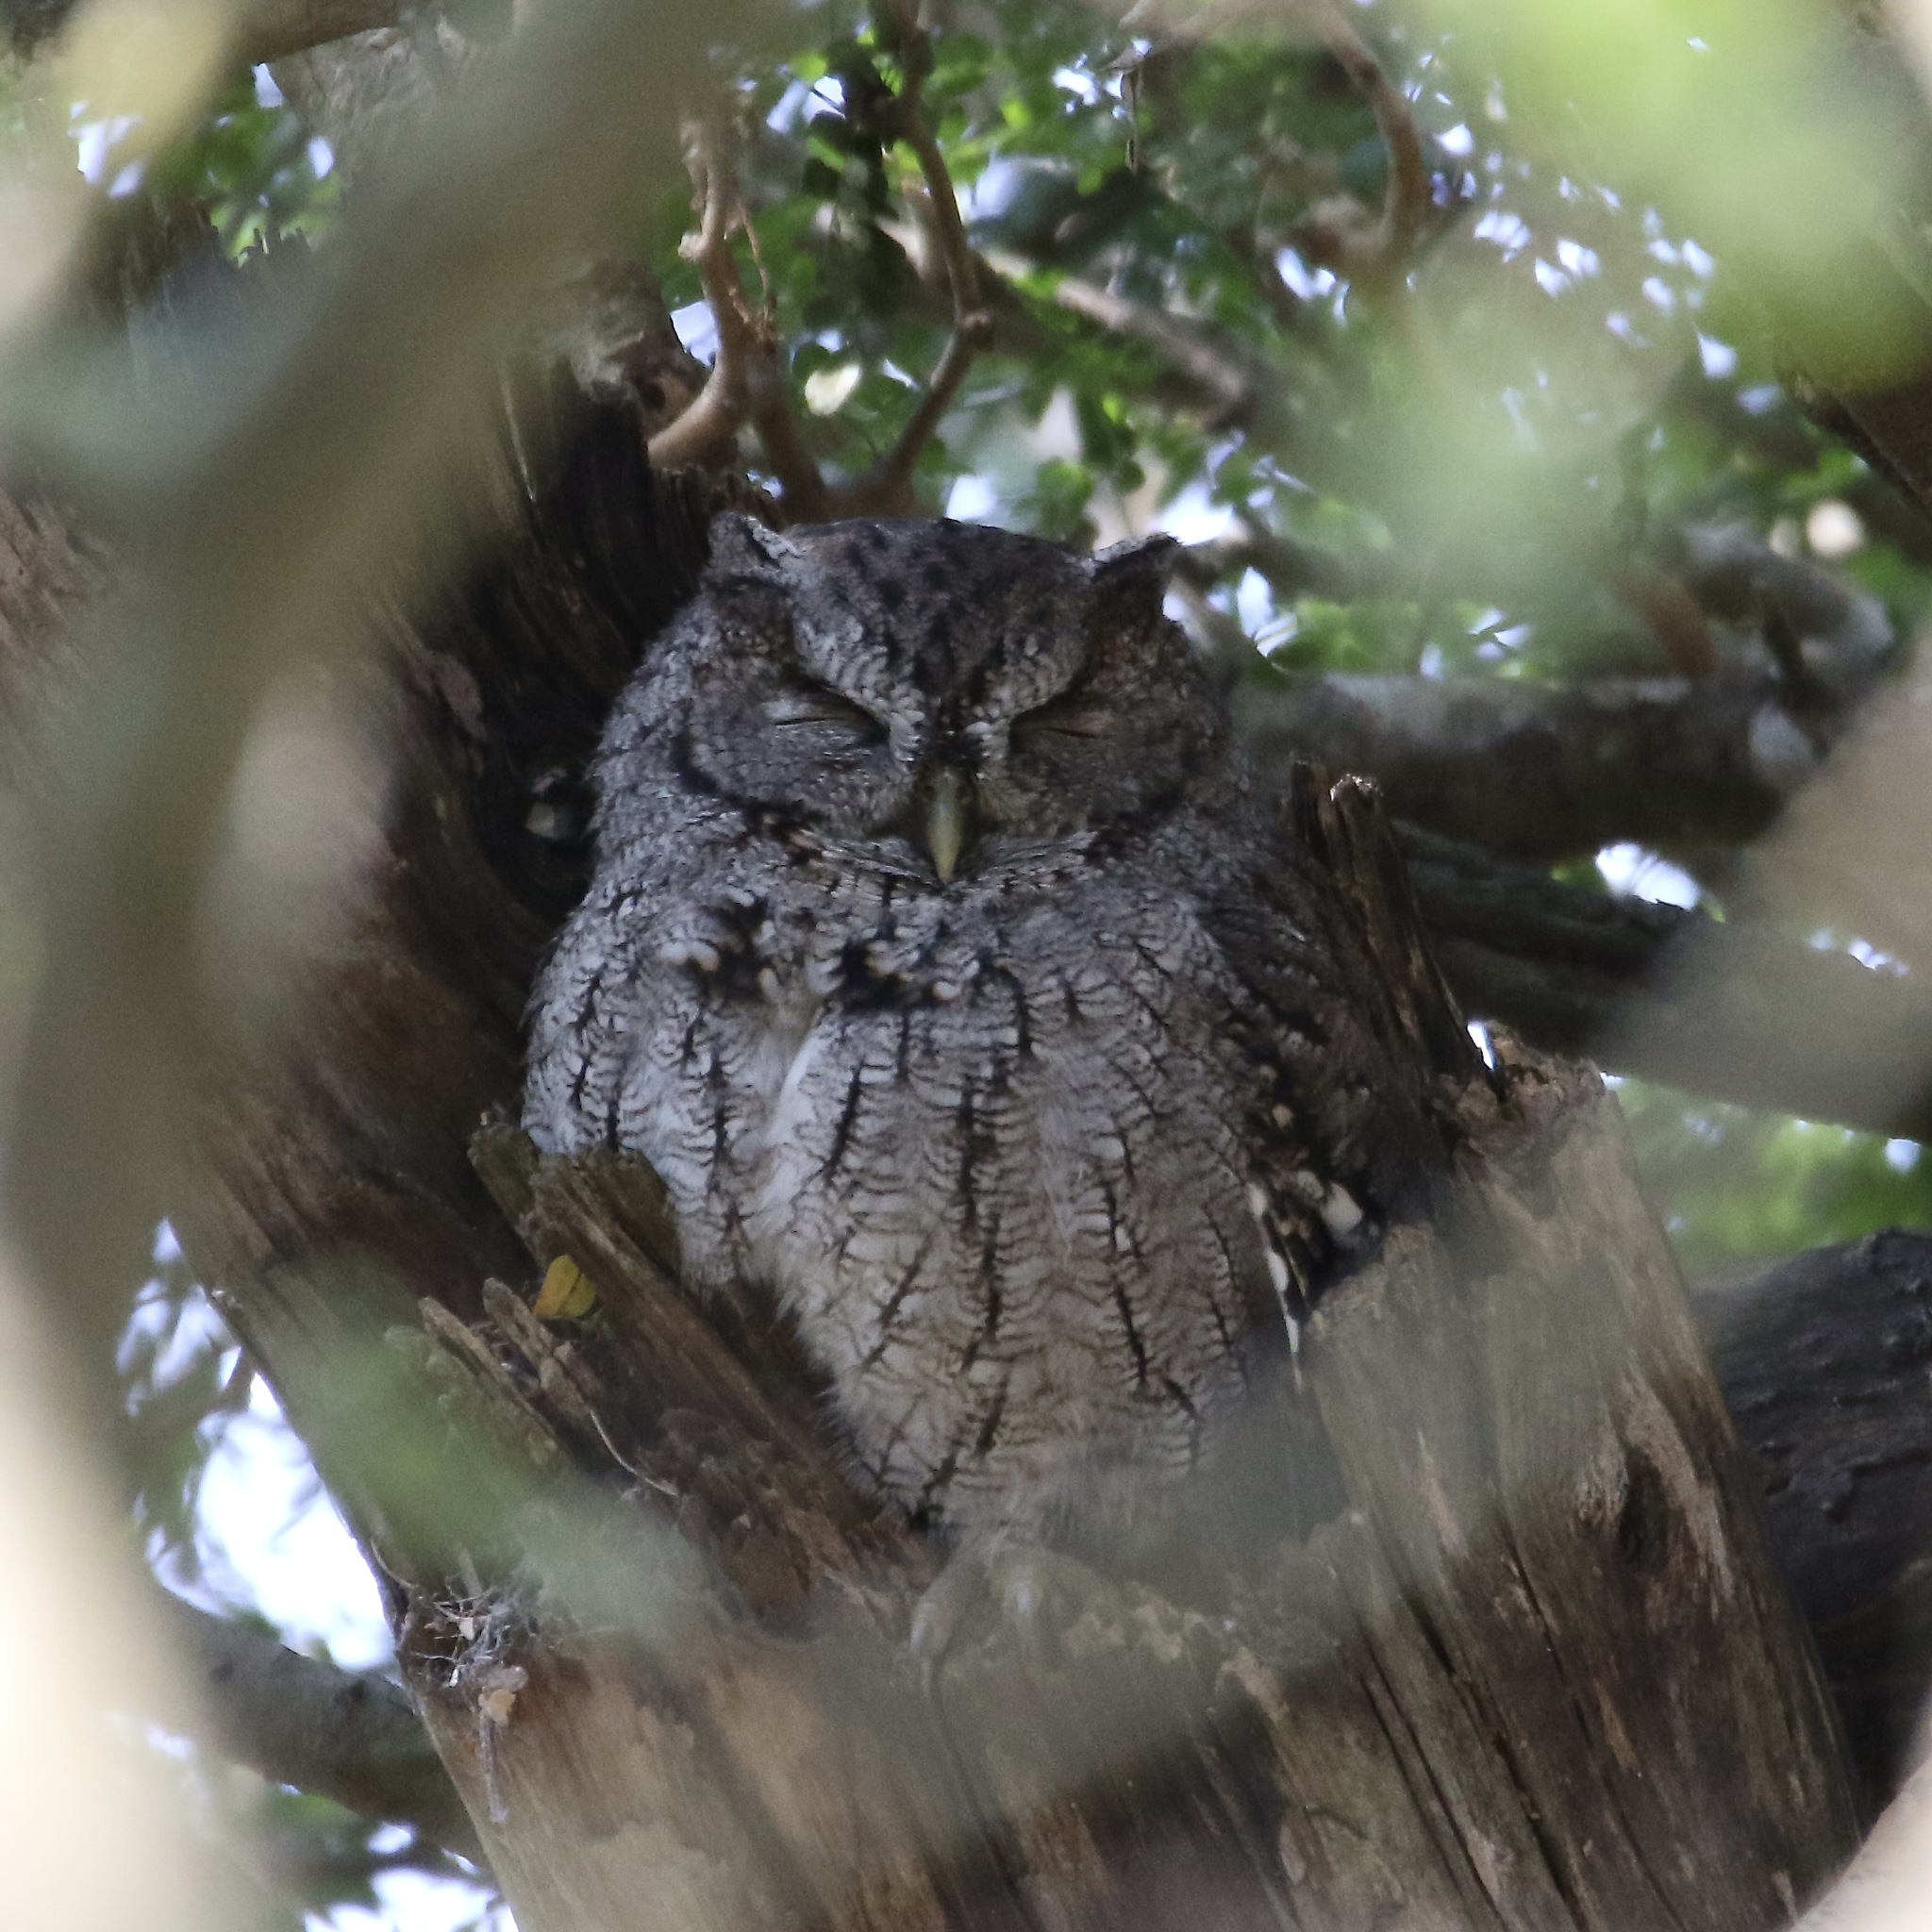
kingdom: Animalia
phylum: Chordata
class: Aves
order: Strigiformes
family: Strigidae
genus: Megascops
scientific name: Megascops asio
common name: Eastern screech-owl
